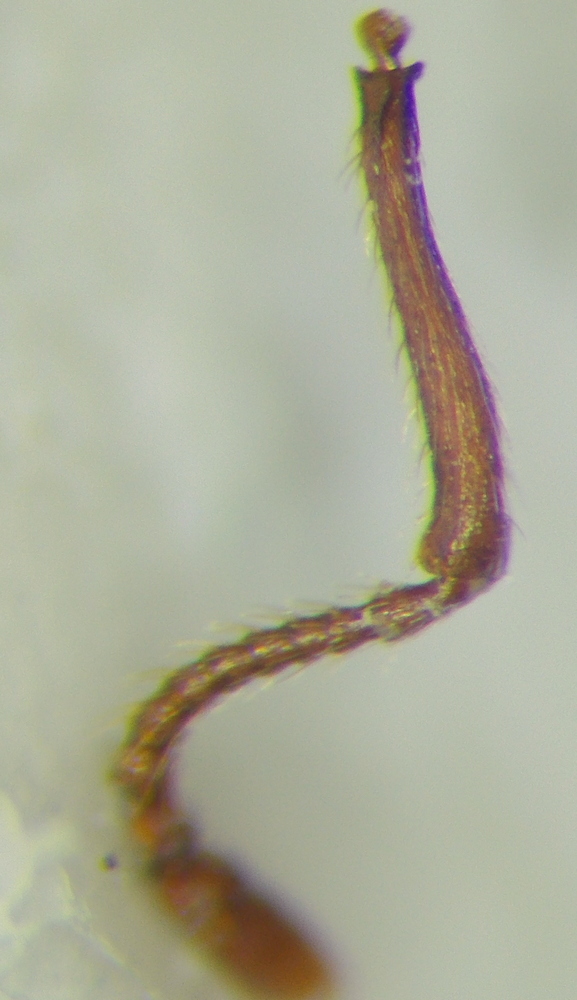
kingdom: Animalia
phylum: Arthropoda
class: Insecta
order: Hymenoptera
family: Formicidae
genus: Myrmica
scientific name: Myrmica hellenica
